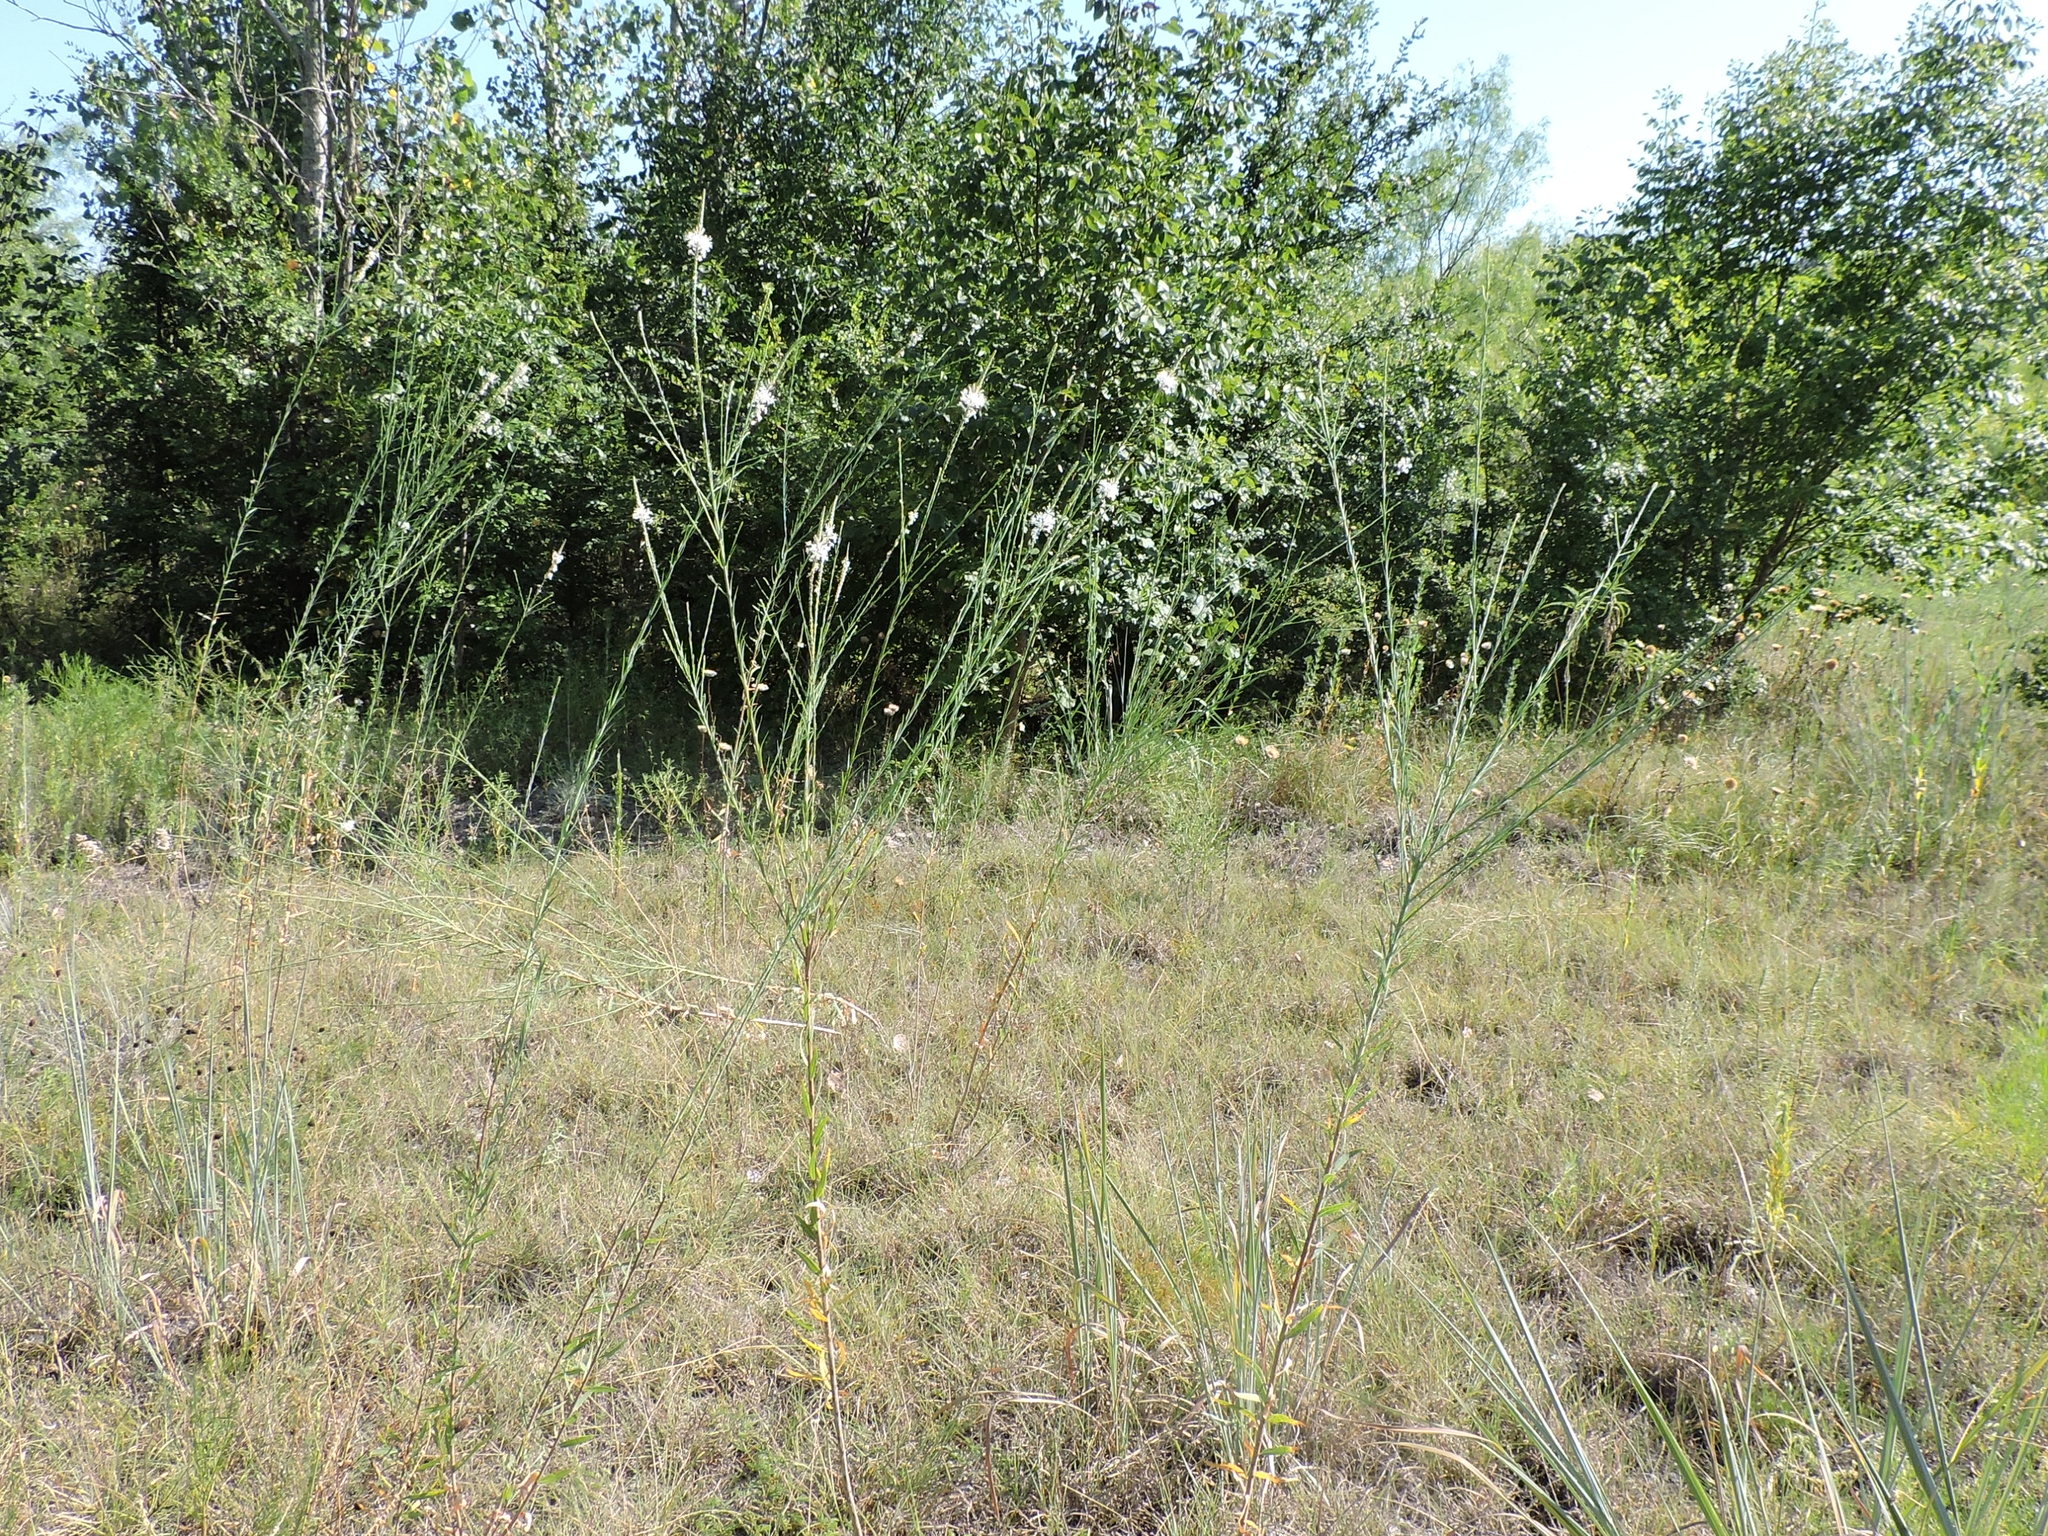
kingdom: Plantae
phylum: Tracheophyta
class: Magnoliopsida
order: Myrtales
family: Onagraceae
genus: Oenothera
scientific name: Oenothera glaucifolia
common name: False gaura
